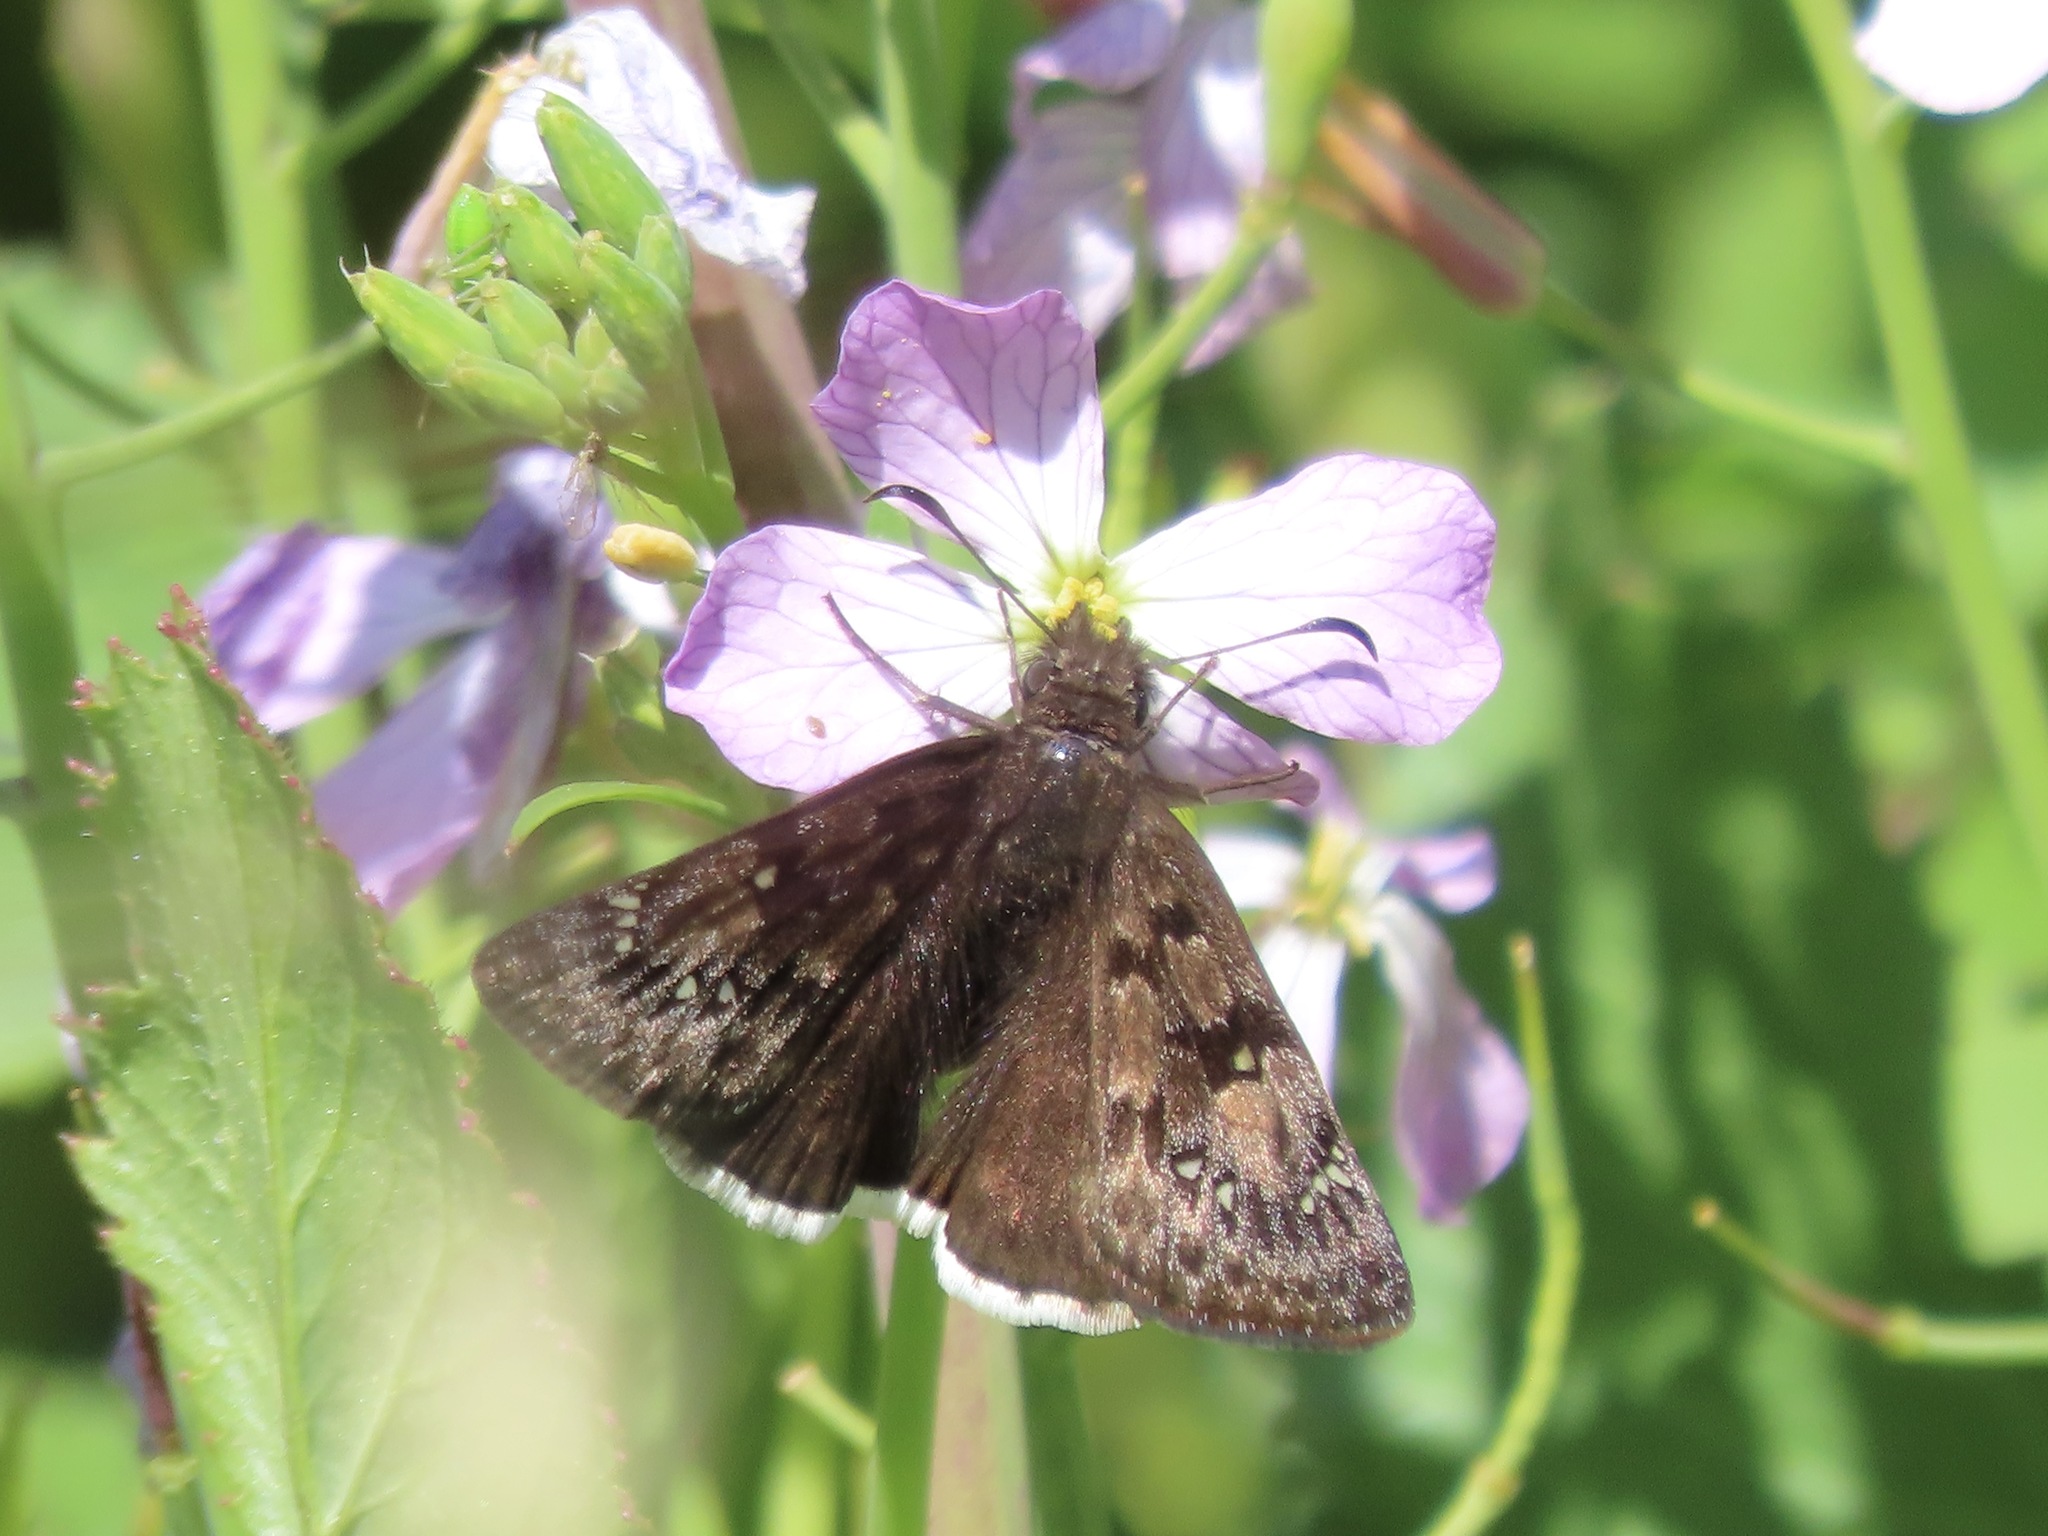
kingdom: Animalia
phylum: Arthropoda
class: Insecta
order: Lepidoptera
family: Hesperiidae
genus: Erynnis
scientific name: Erynnis tristis
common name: Mournful duskywing
